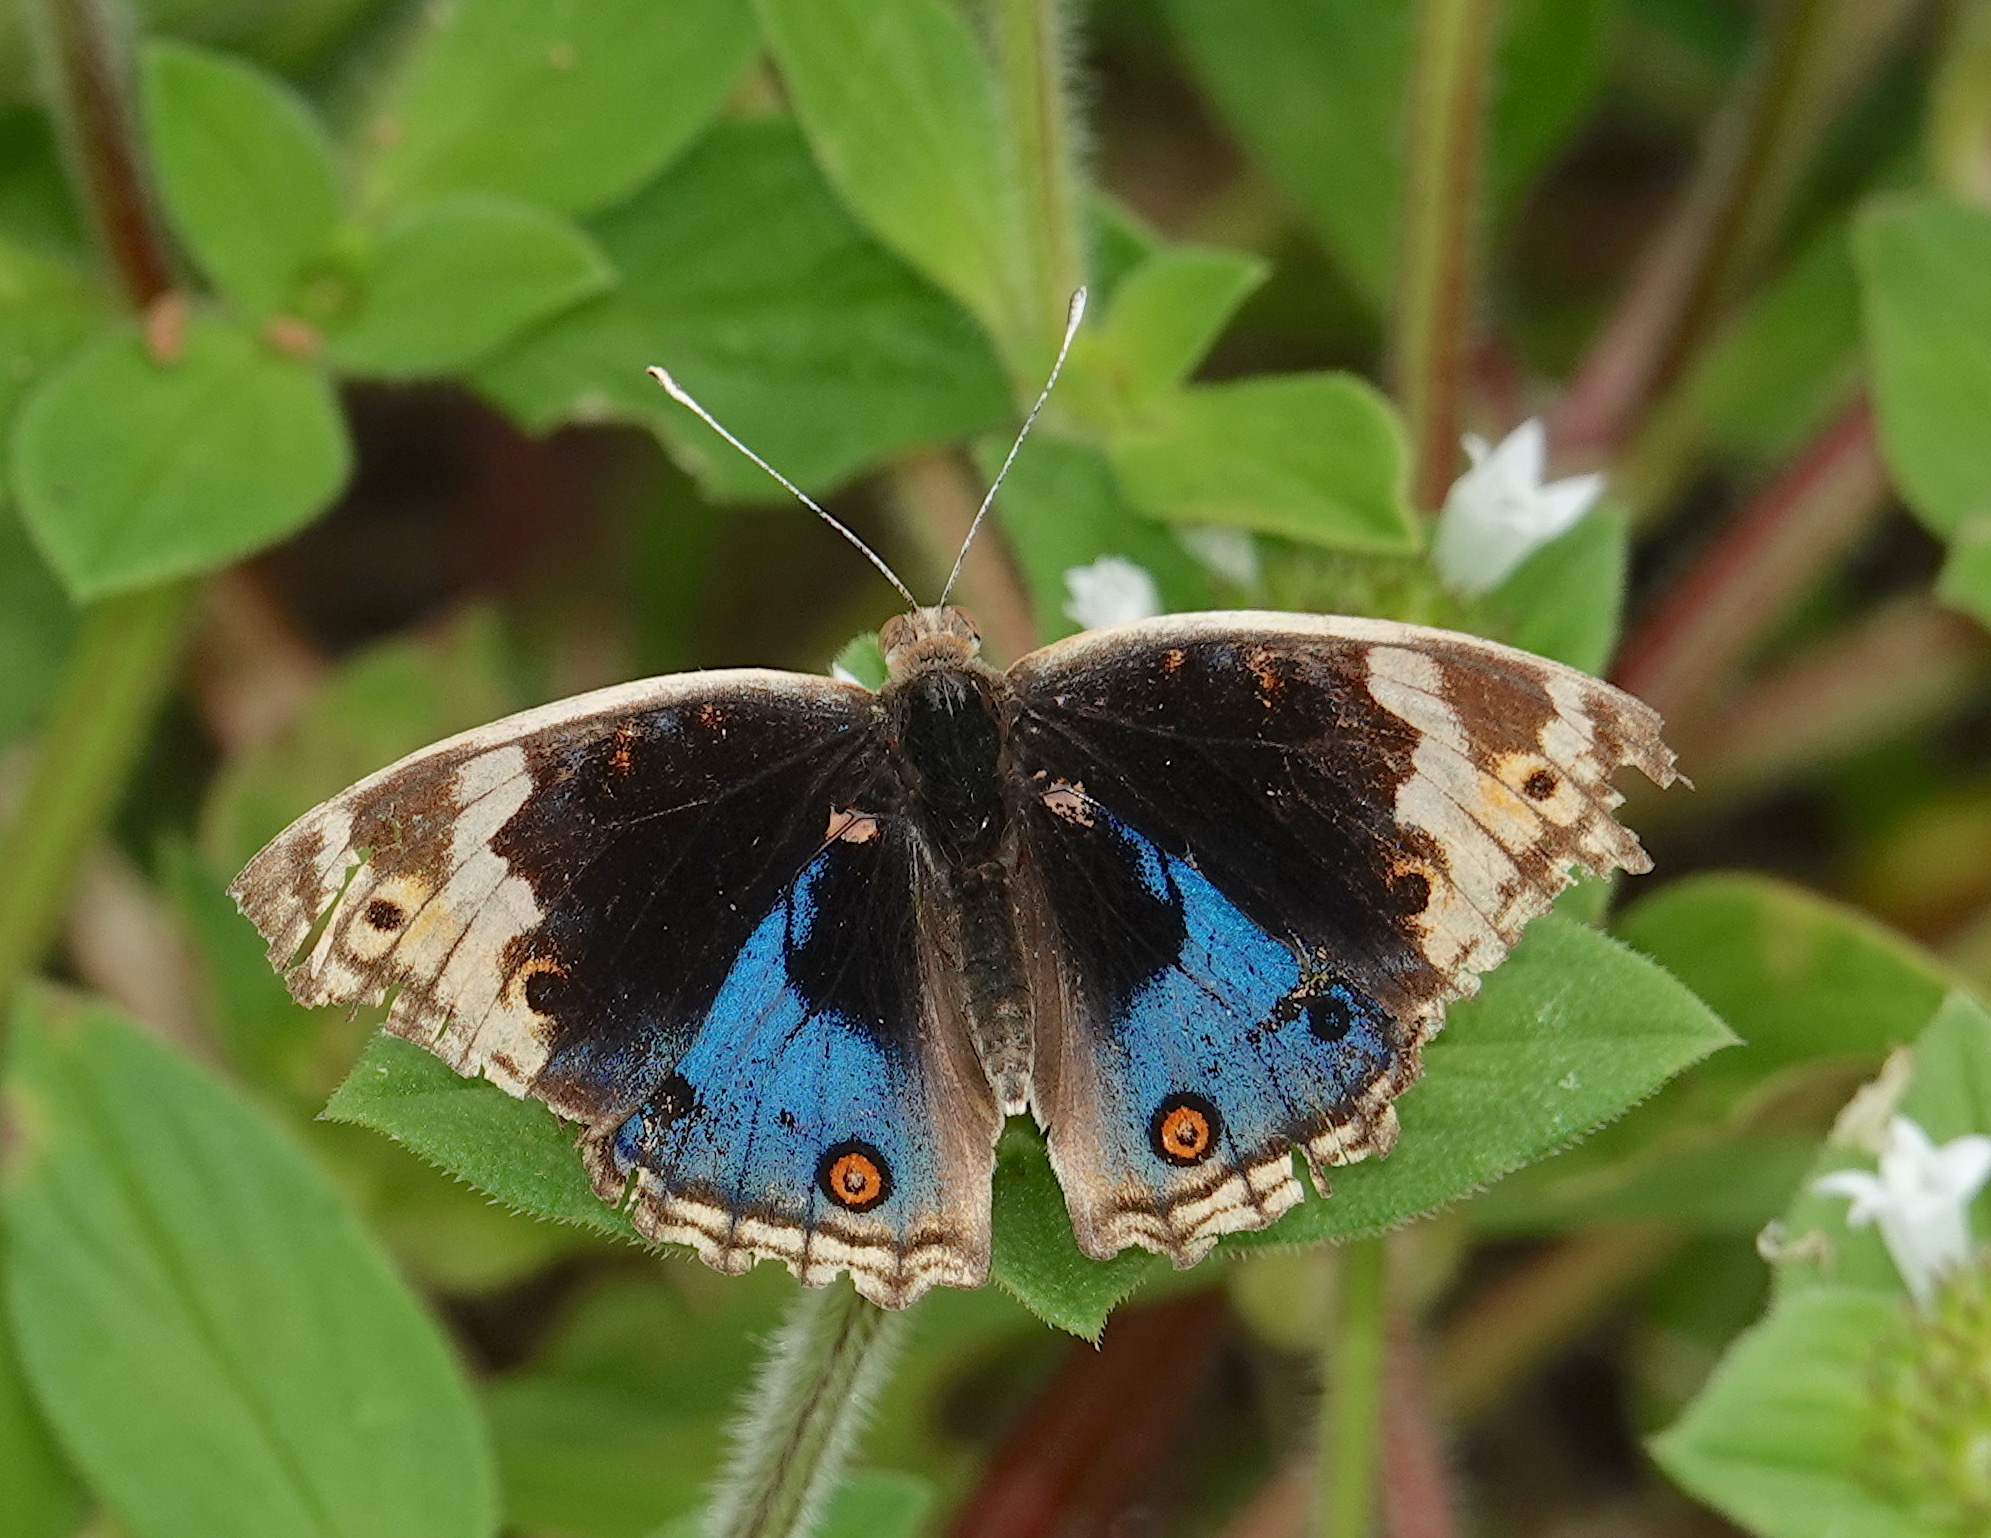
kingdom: Animalia
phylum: Arthropoda
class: Insecta
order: Lepidoptera
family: Nymphalidae
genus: Junonia
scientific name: Junonia orithya
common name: Blue pansy
